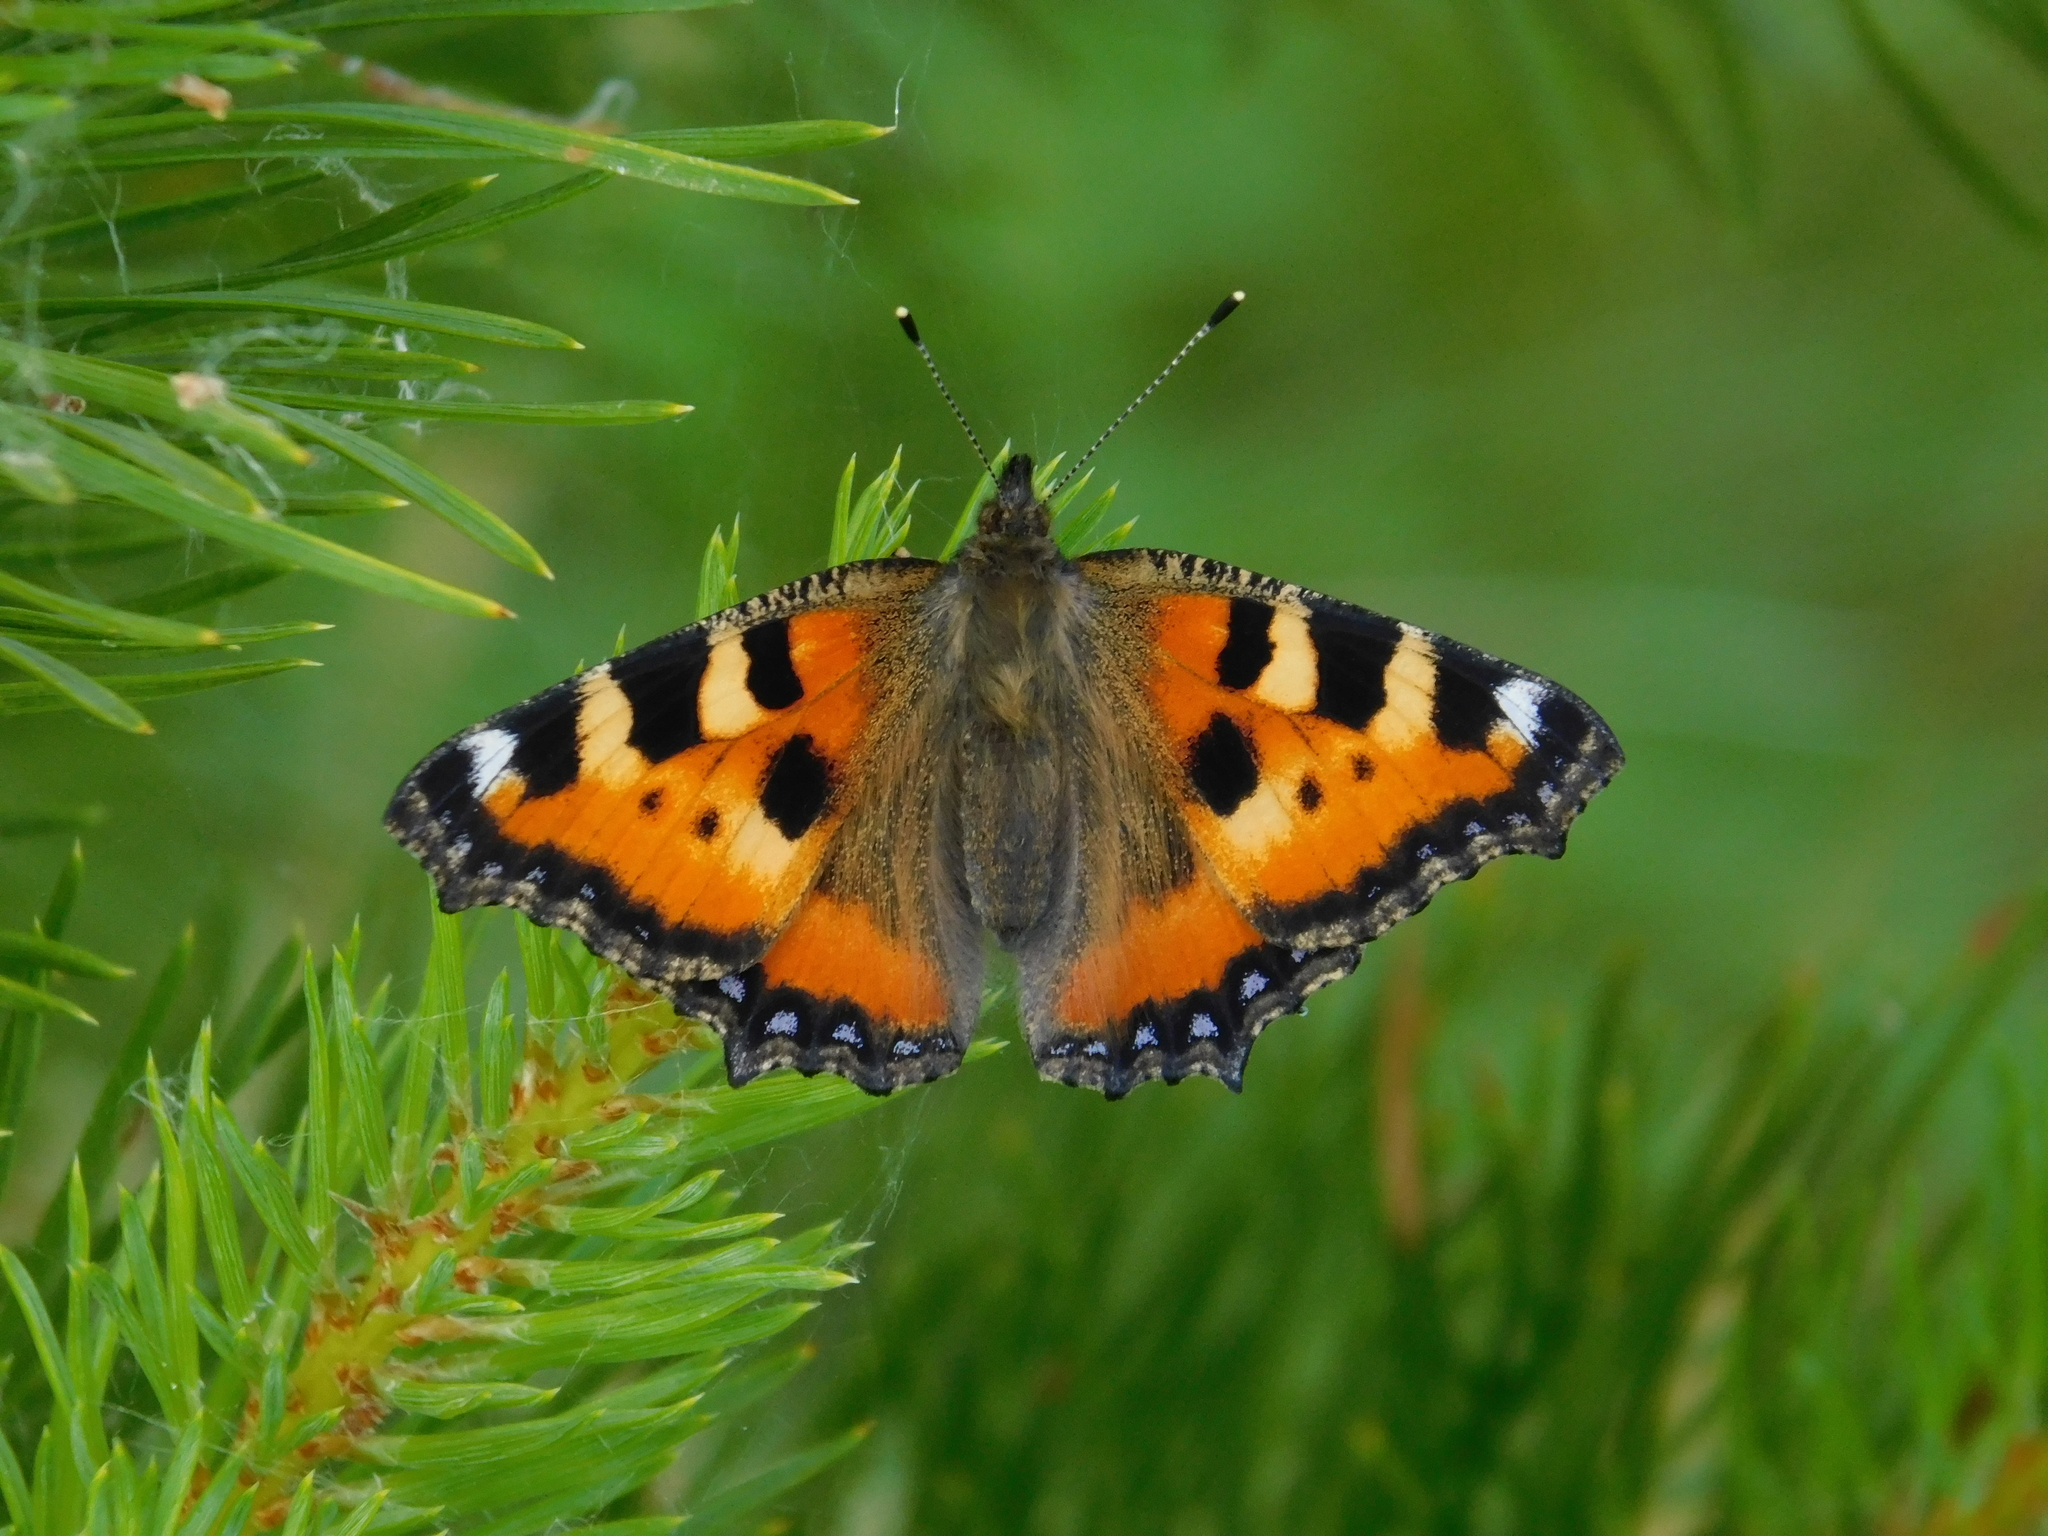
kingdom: Animalia
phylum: Arthropoda
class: Insecta
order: Lepidoptera
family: Nymphalidae
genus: Aglais
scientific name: Aglais urticae
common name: Small tortoiseshell
